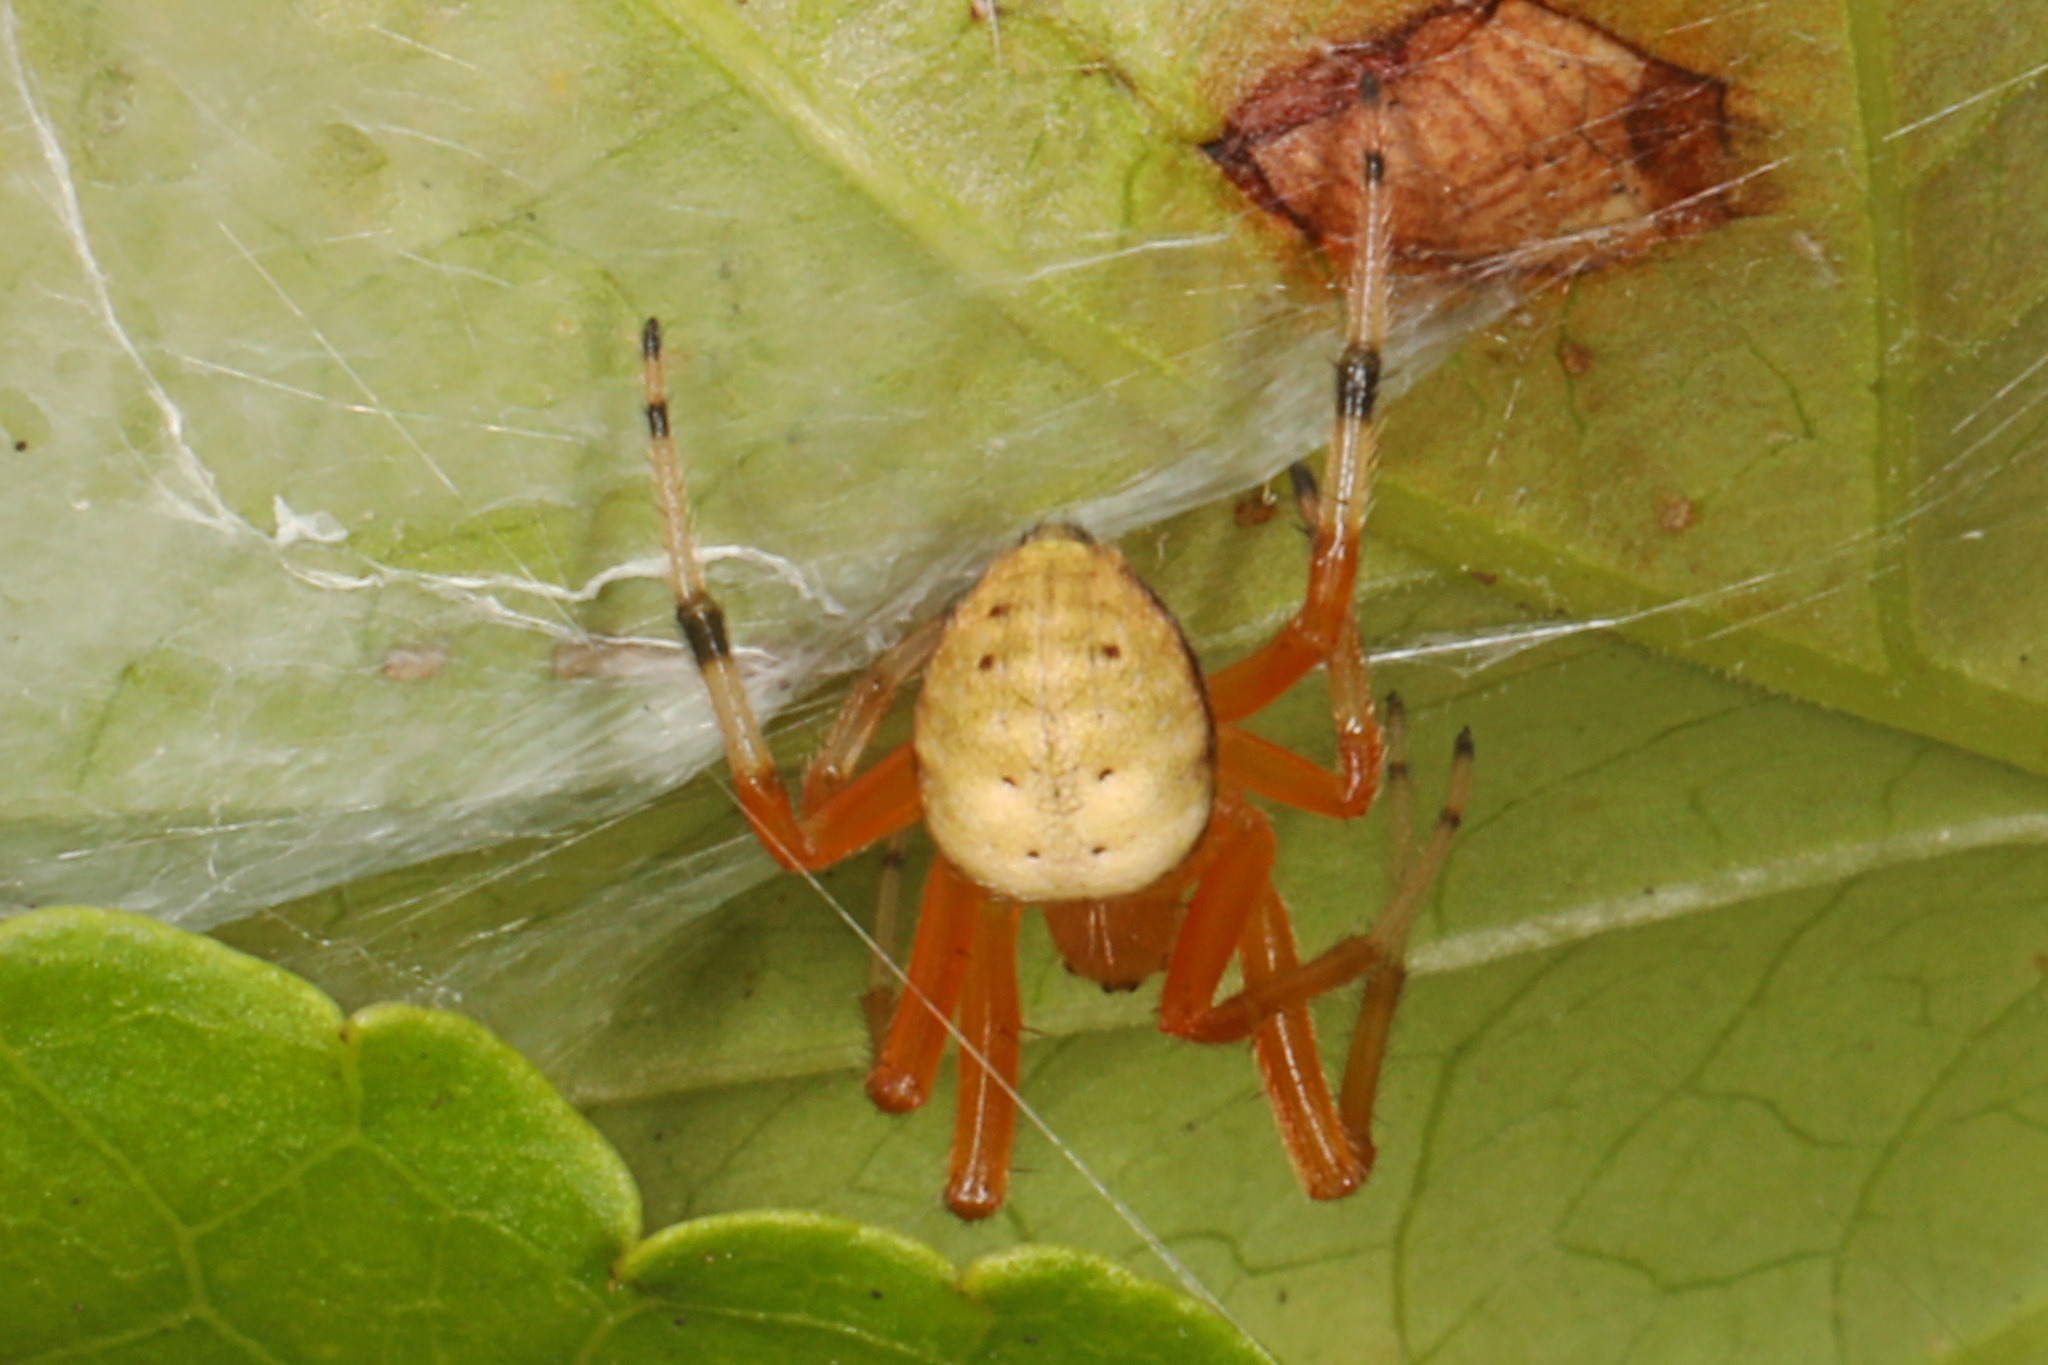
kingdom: Animalia
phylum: Arthropoda
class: Arachnida
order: Araneae
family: Araneidae
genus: Araneus
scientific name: Araneus thaddeus
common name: Lattice orbweaver
